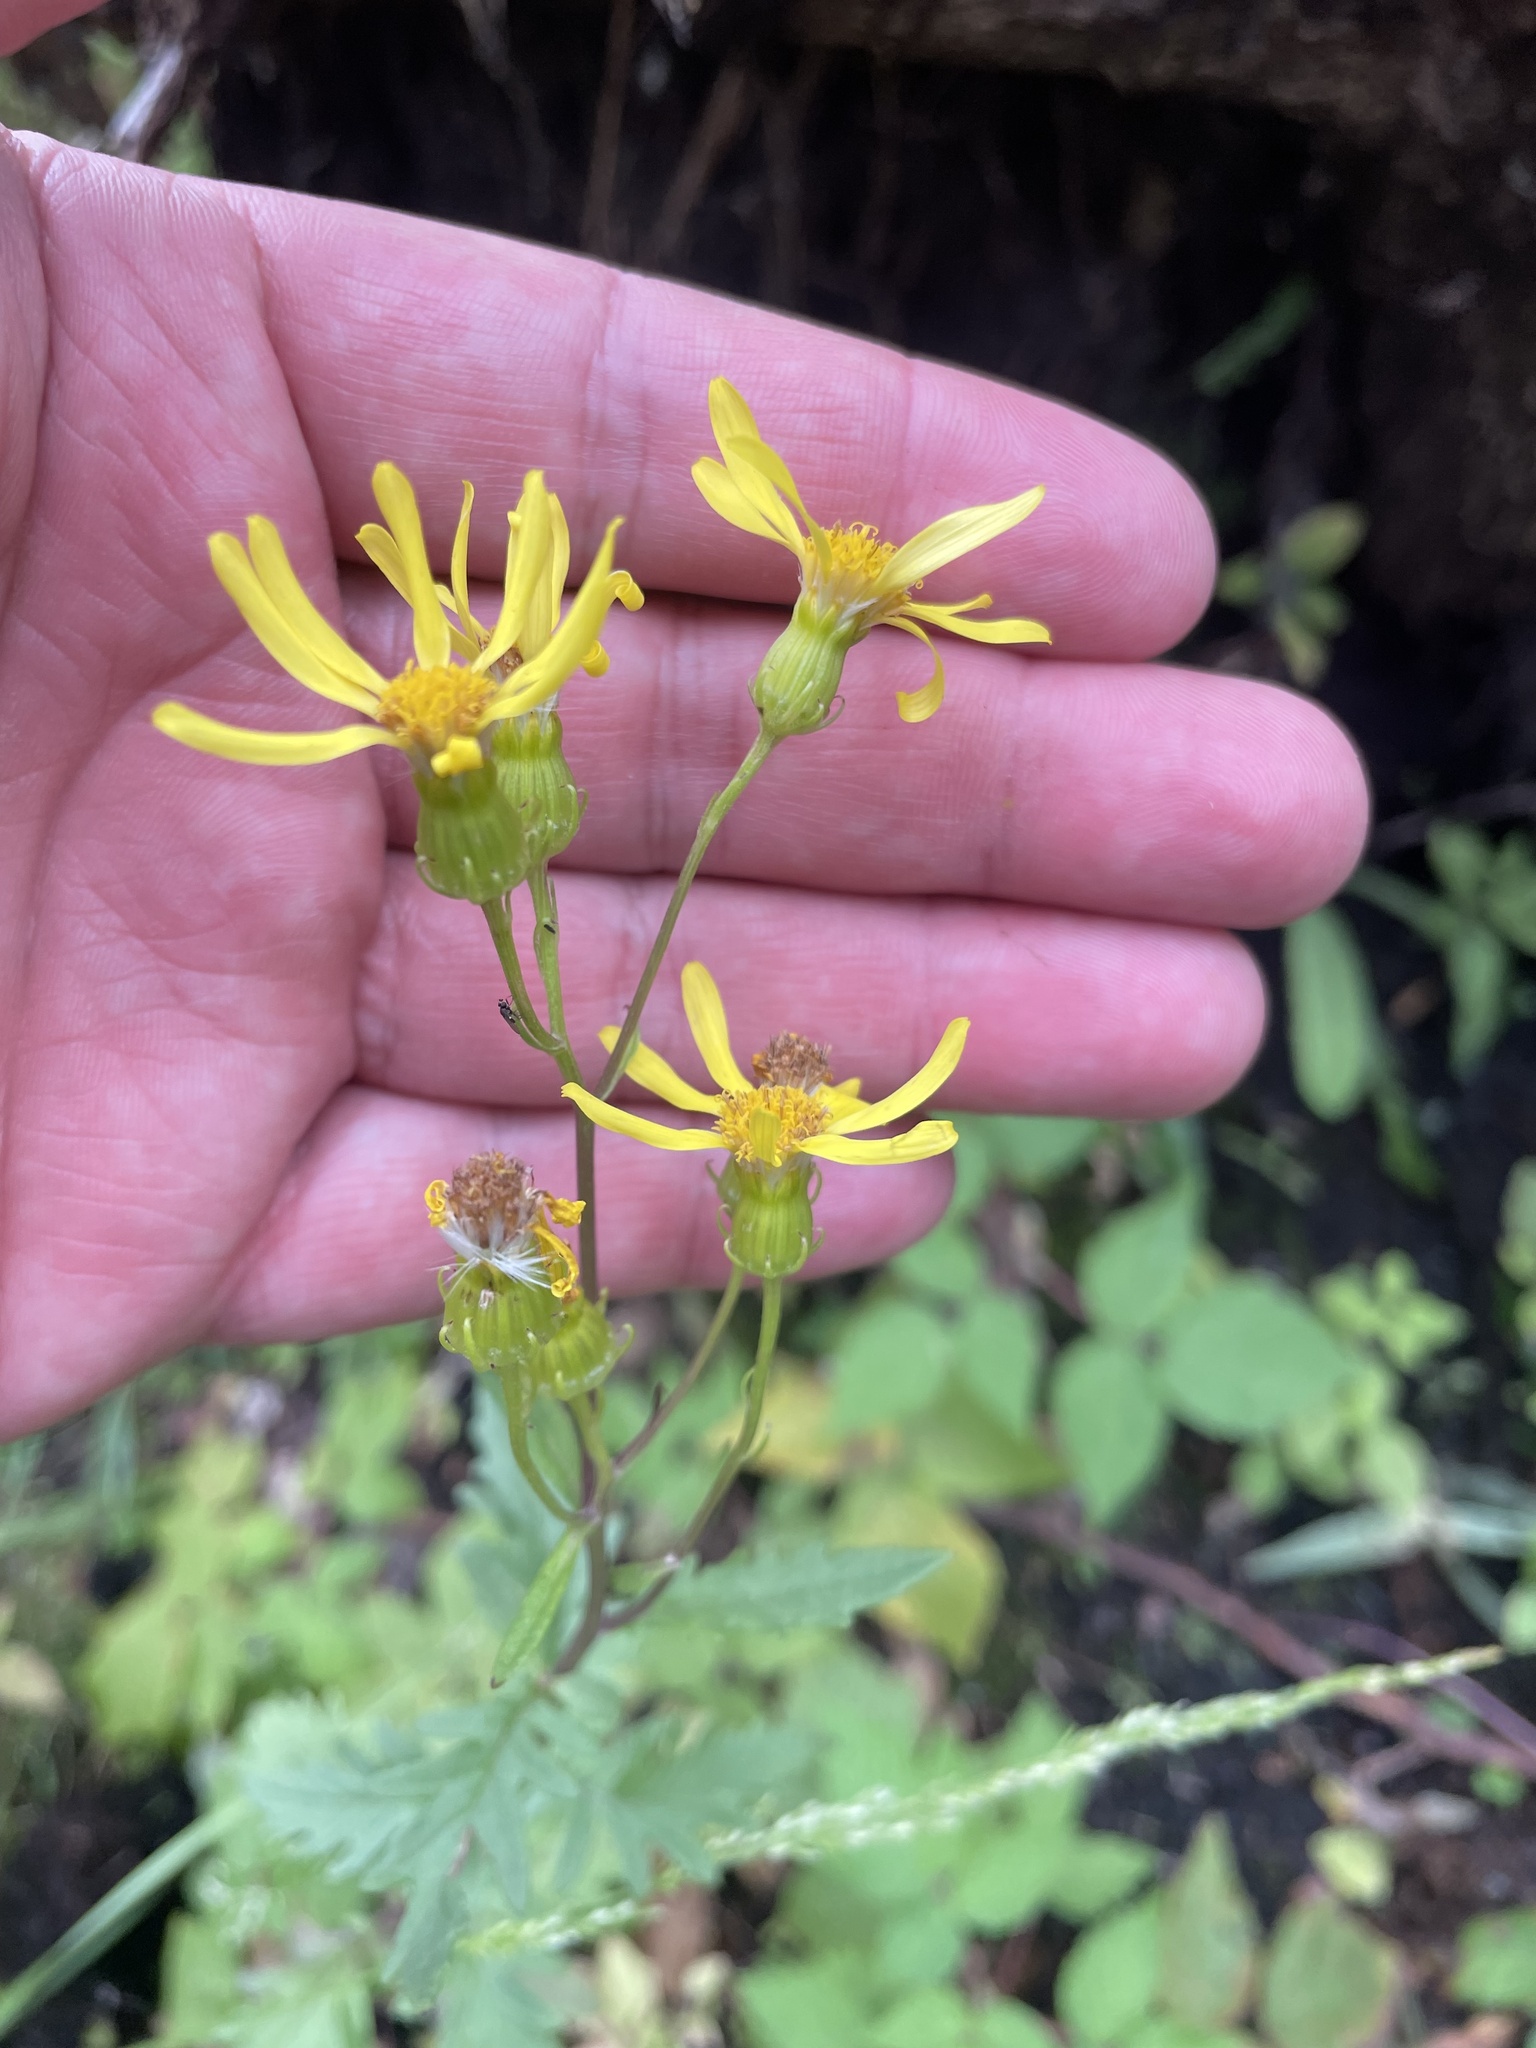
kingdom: Plantae
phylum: Tracheophyta
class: Magnoliopsida
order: Asterales
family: Asteraceae
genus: Senecio
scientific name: Senecio eremophilus
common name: Desert ragwort
